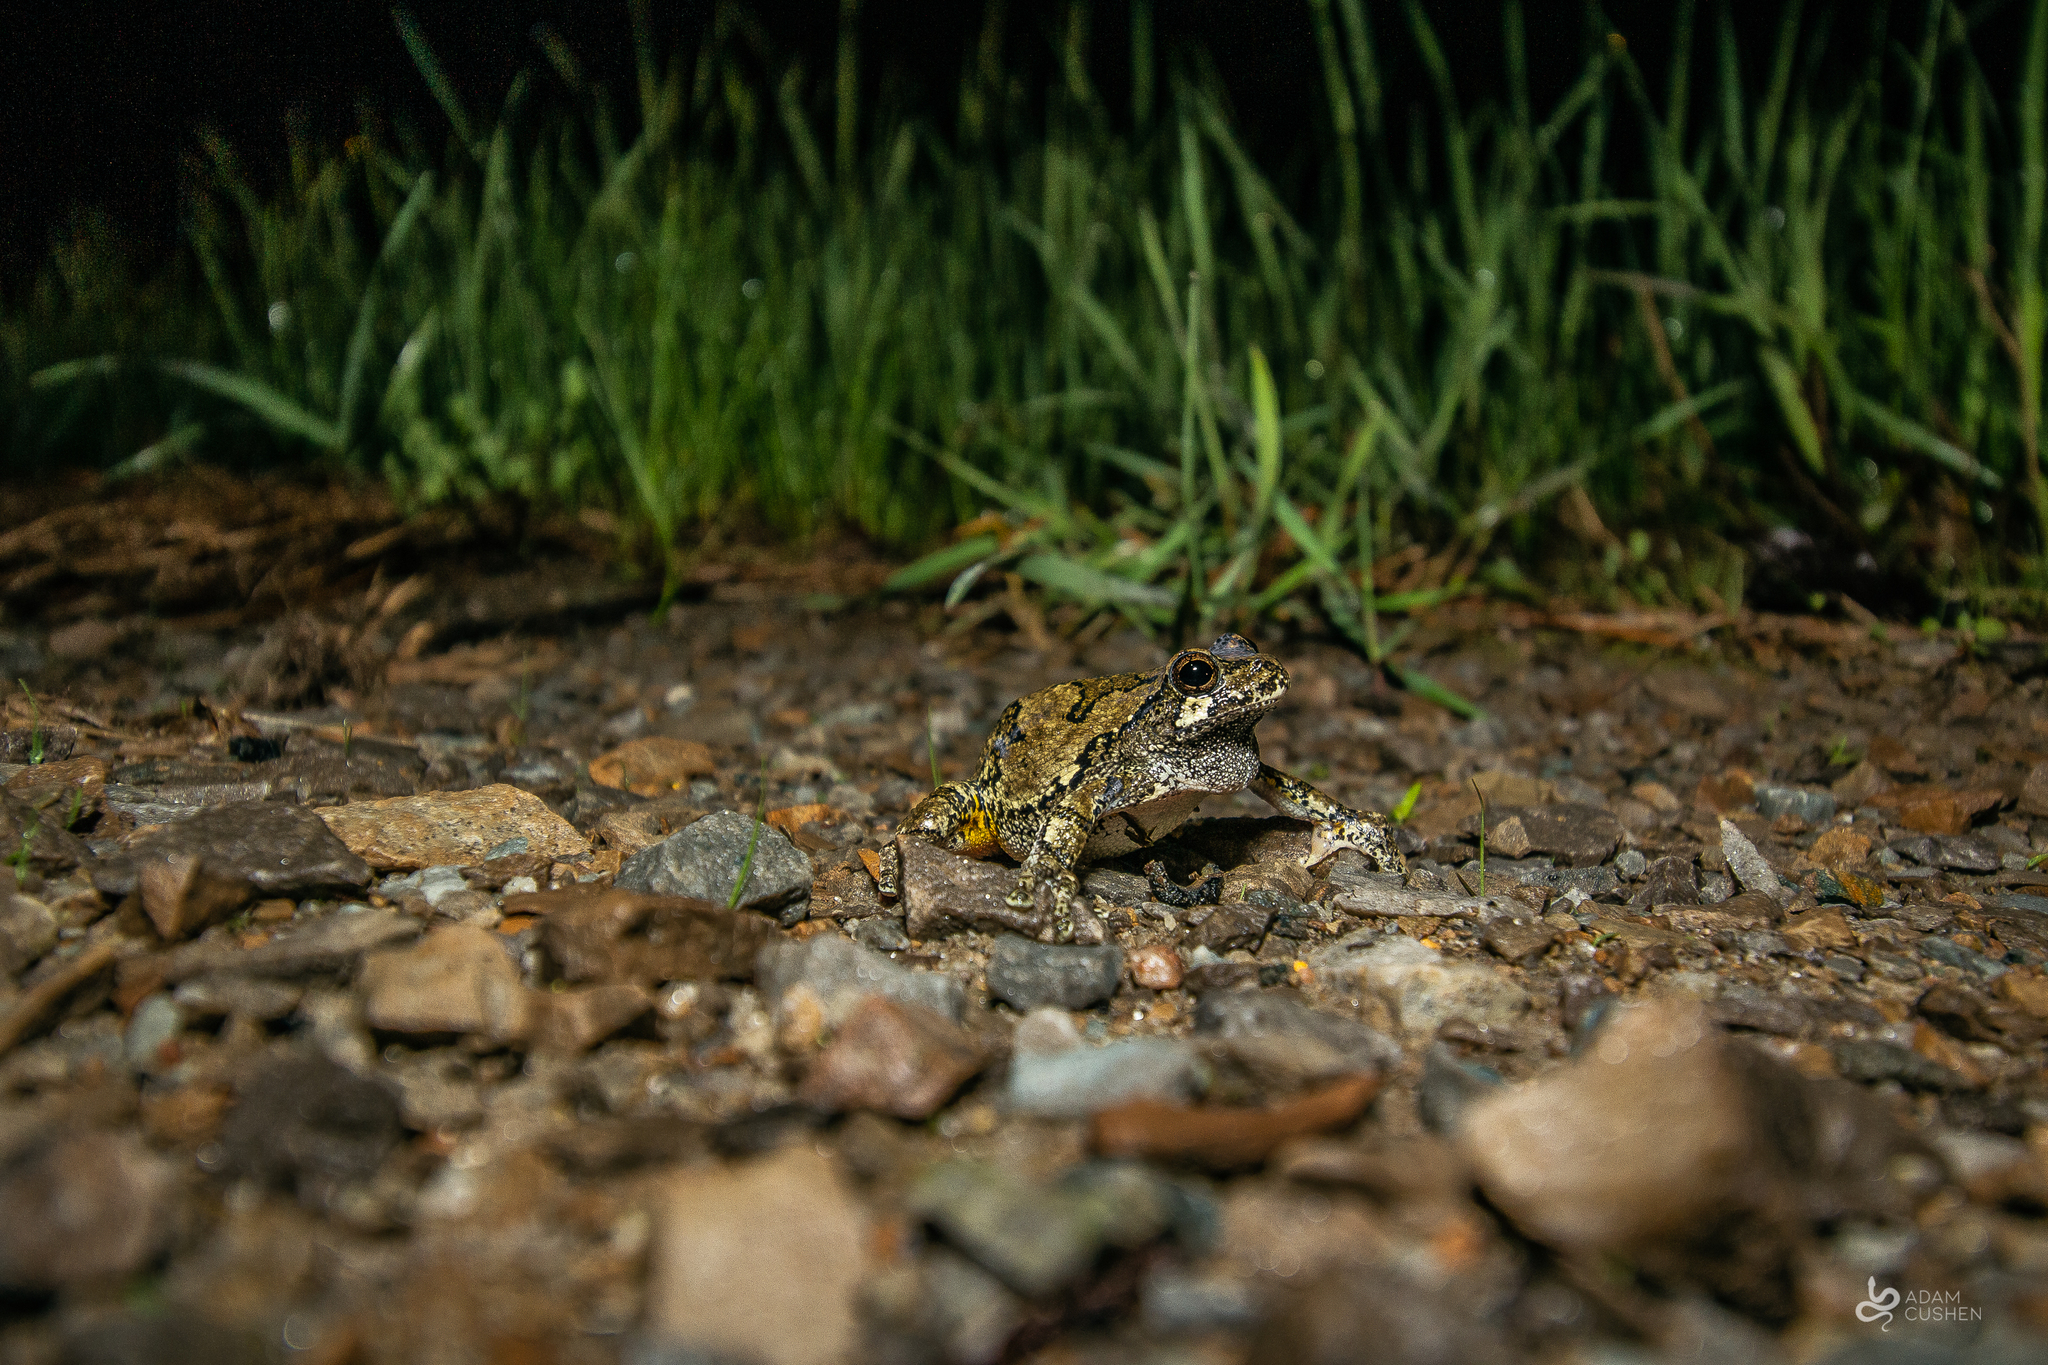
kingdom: Animalia
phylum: Chordata
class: Amphibia
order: Anura
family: Hylidae
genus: Dryophytes
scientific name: Dryophytes versicolor
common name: Gray treefrog
